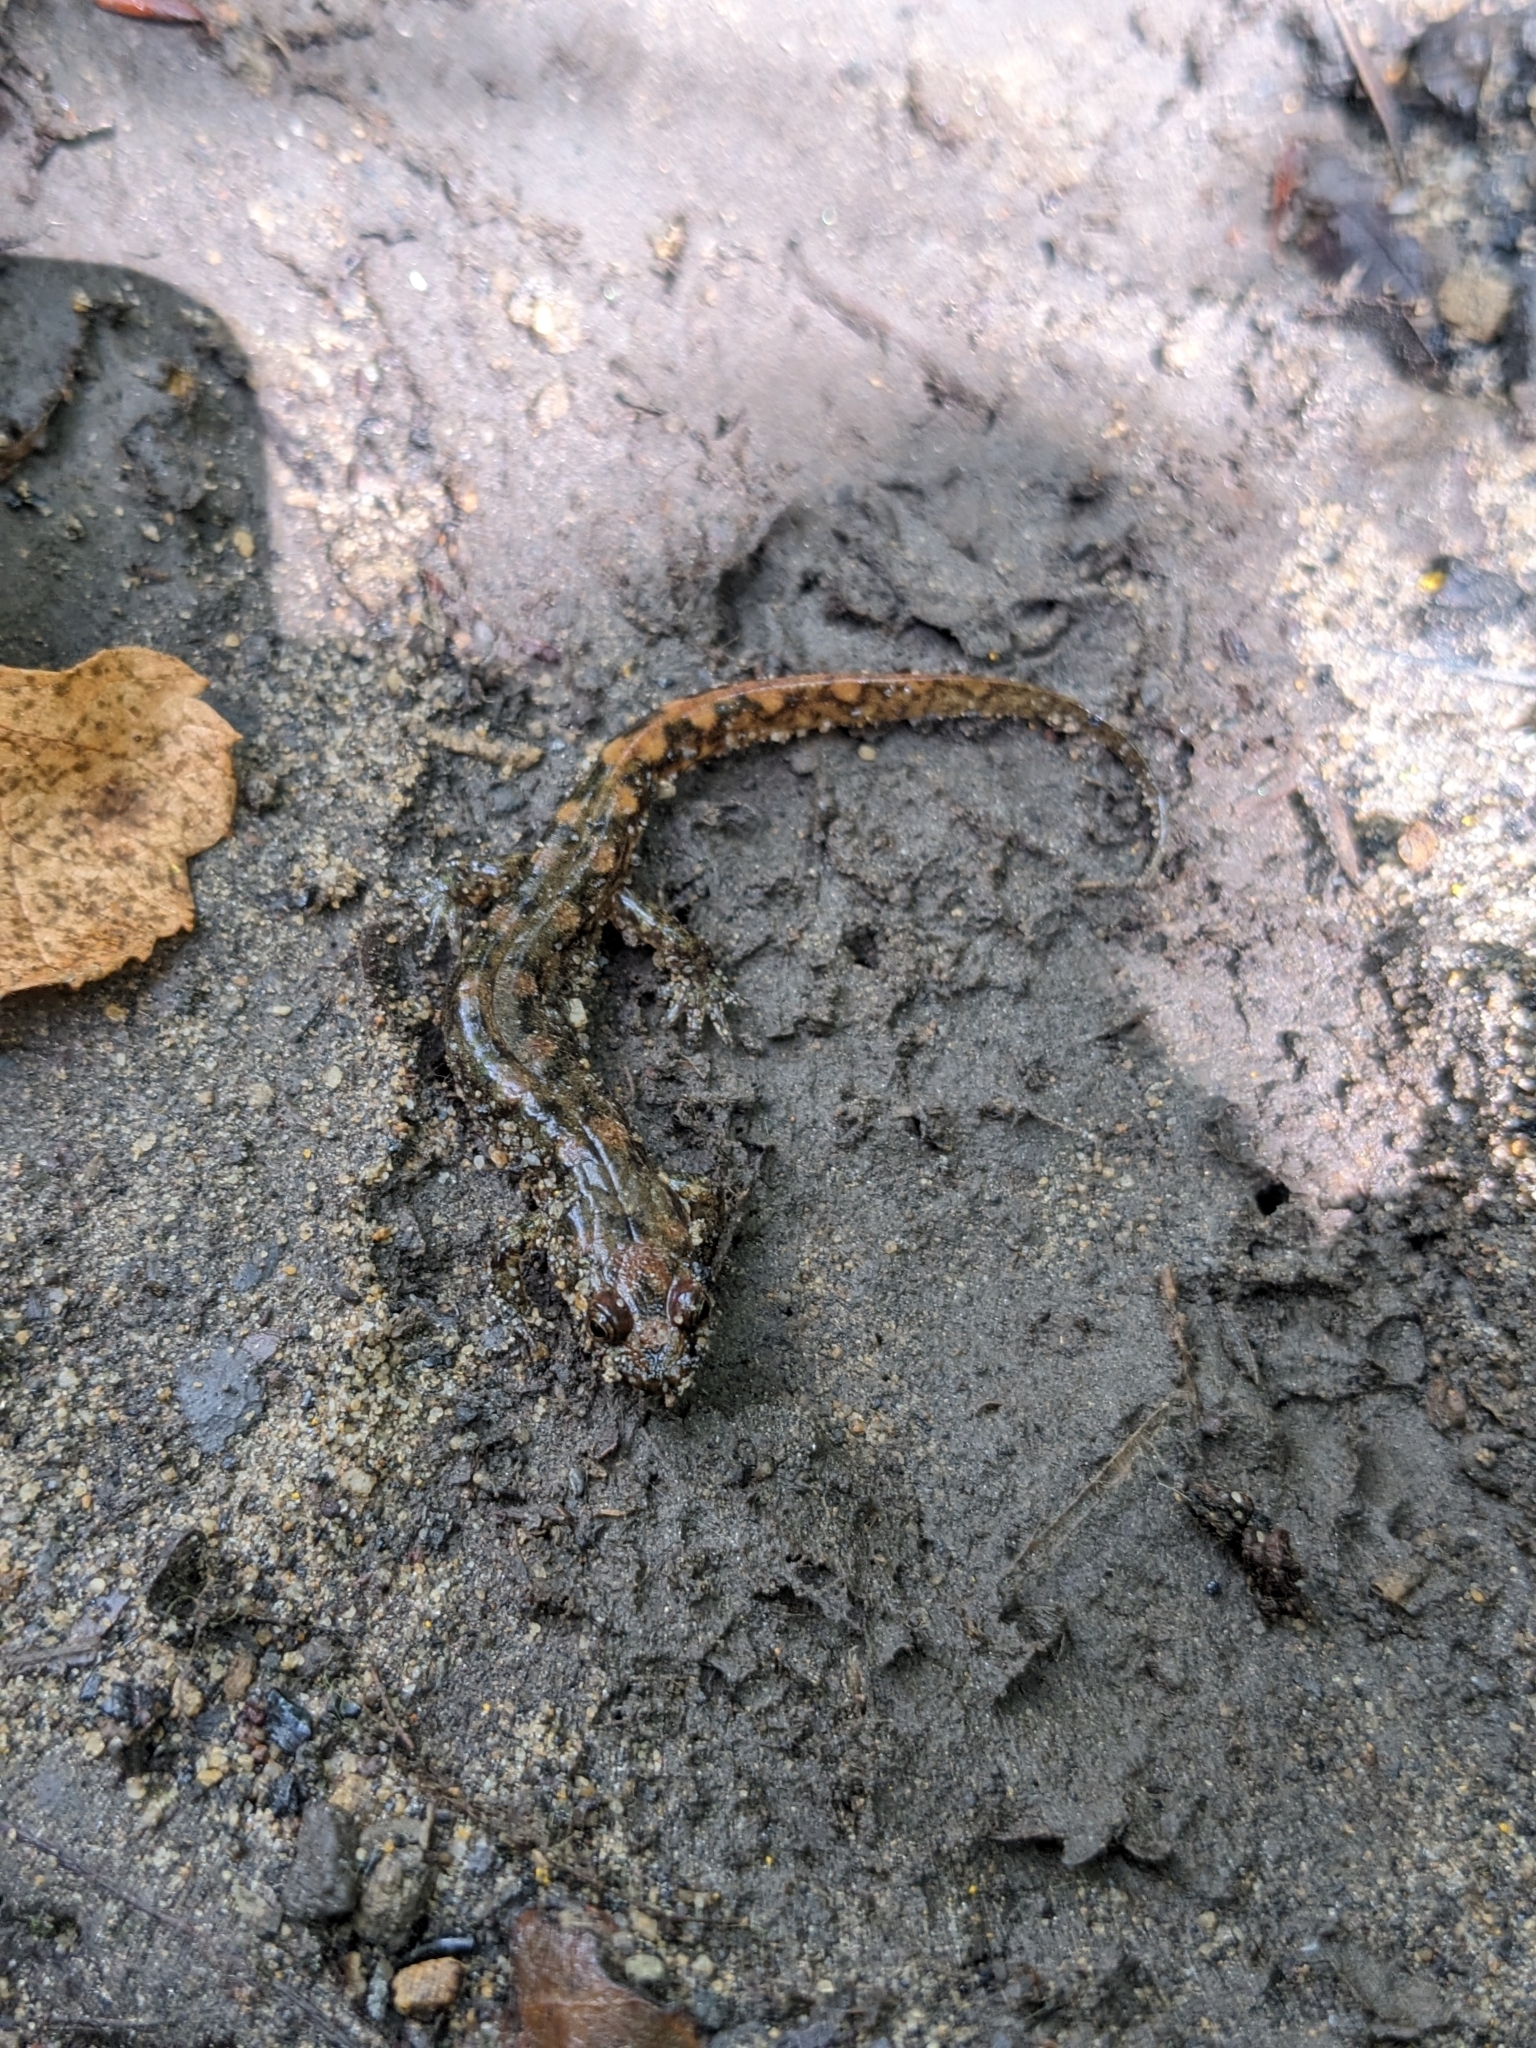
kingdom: Animalia
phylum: Chordata
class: Amphibia
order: Caudata
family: Plethodontidae
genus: Desmognathus
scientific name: Desmognathus monticola
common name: Seal salamander
